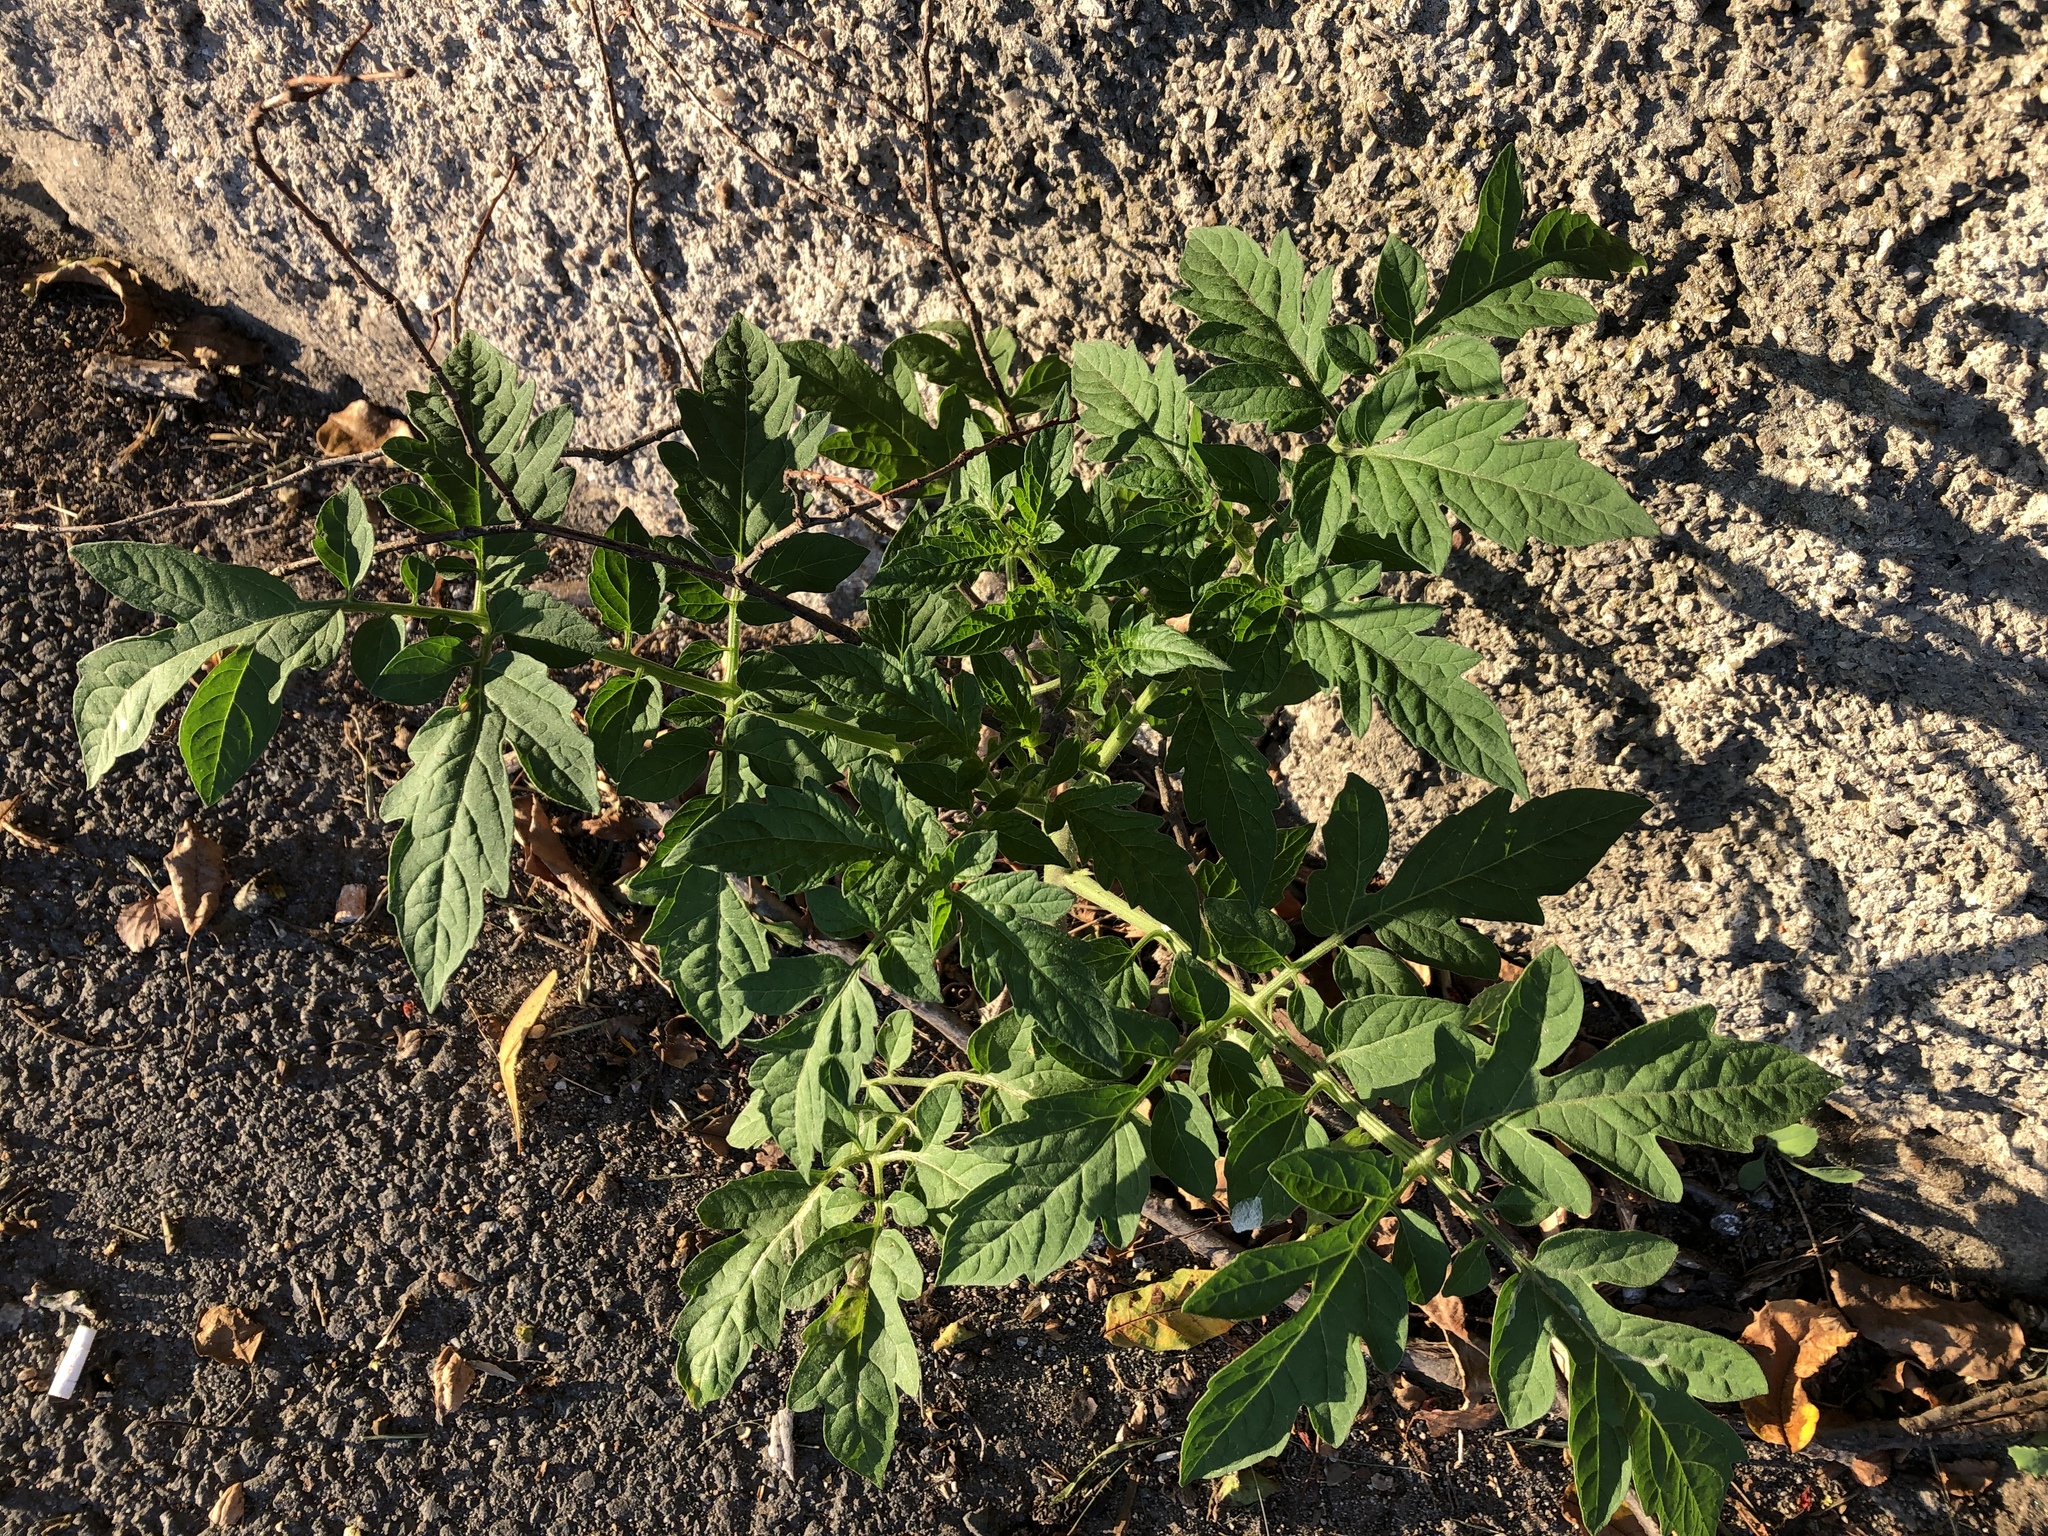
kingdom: Plantae
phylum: Tracheophyta
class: Magnoliopsida
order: Solanales
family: Solanaceae
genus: Solanum
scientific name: Solanum lycopersicum
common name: Garden tomato
